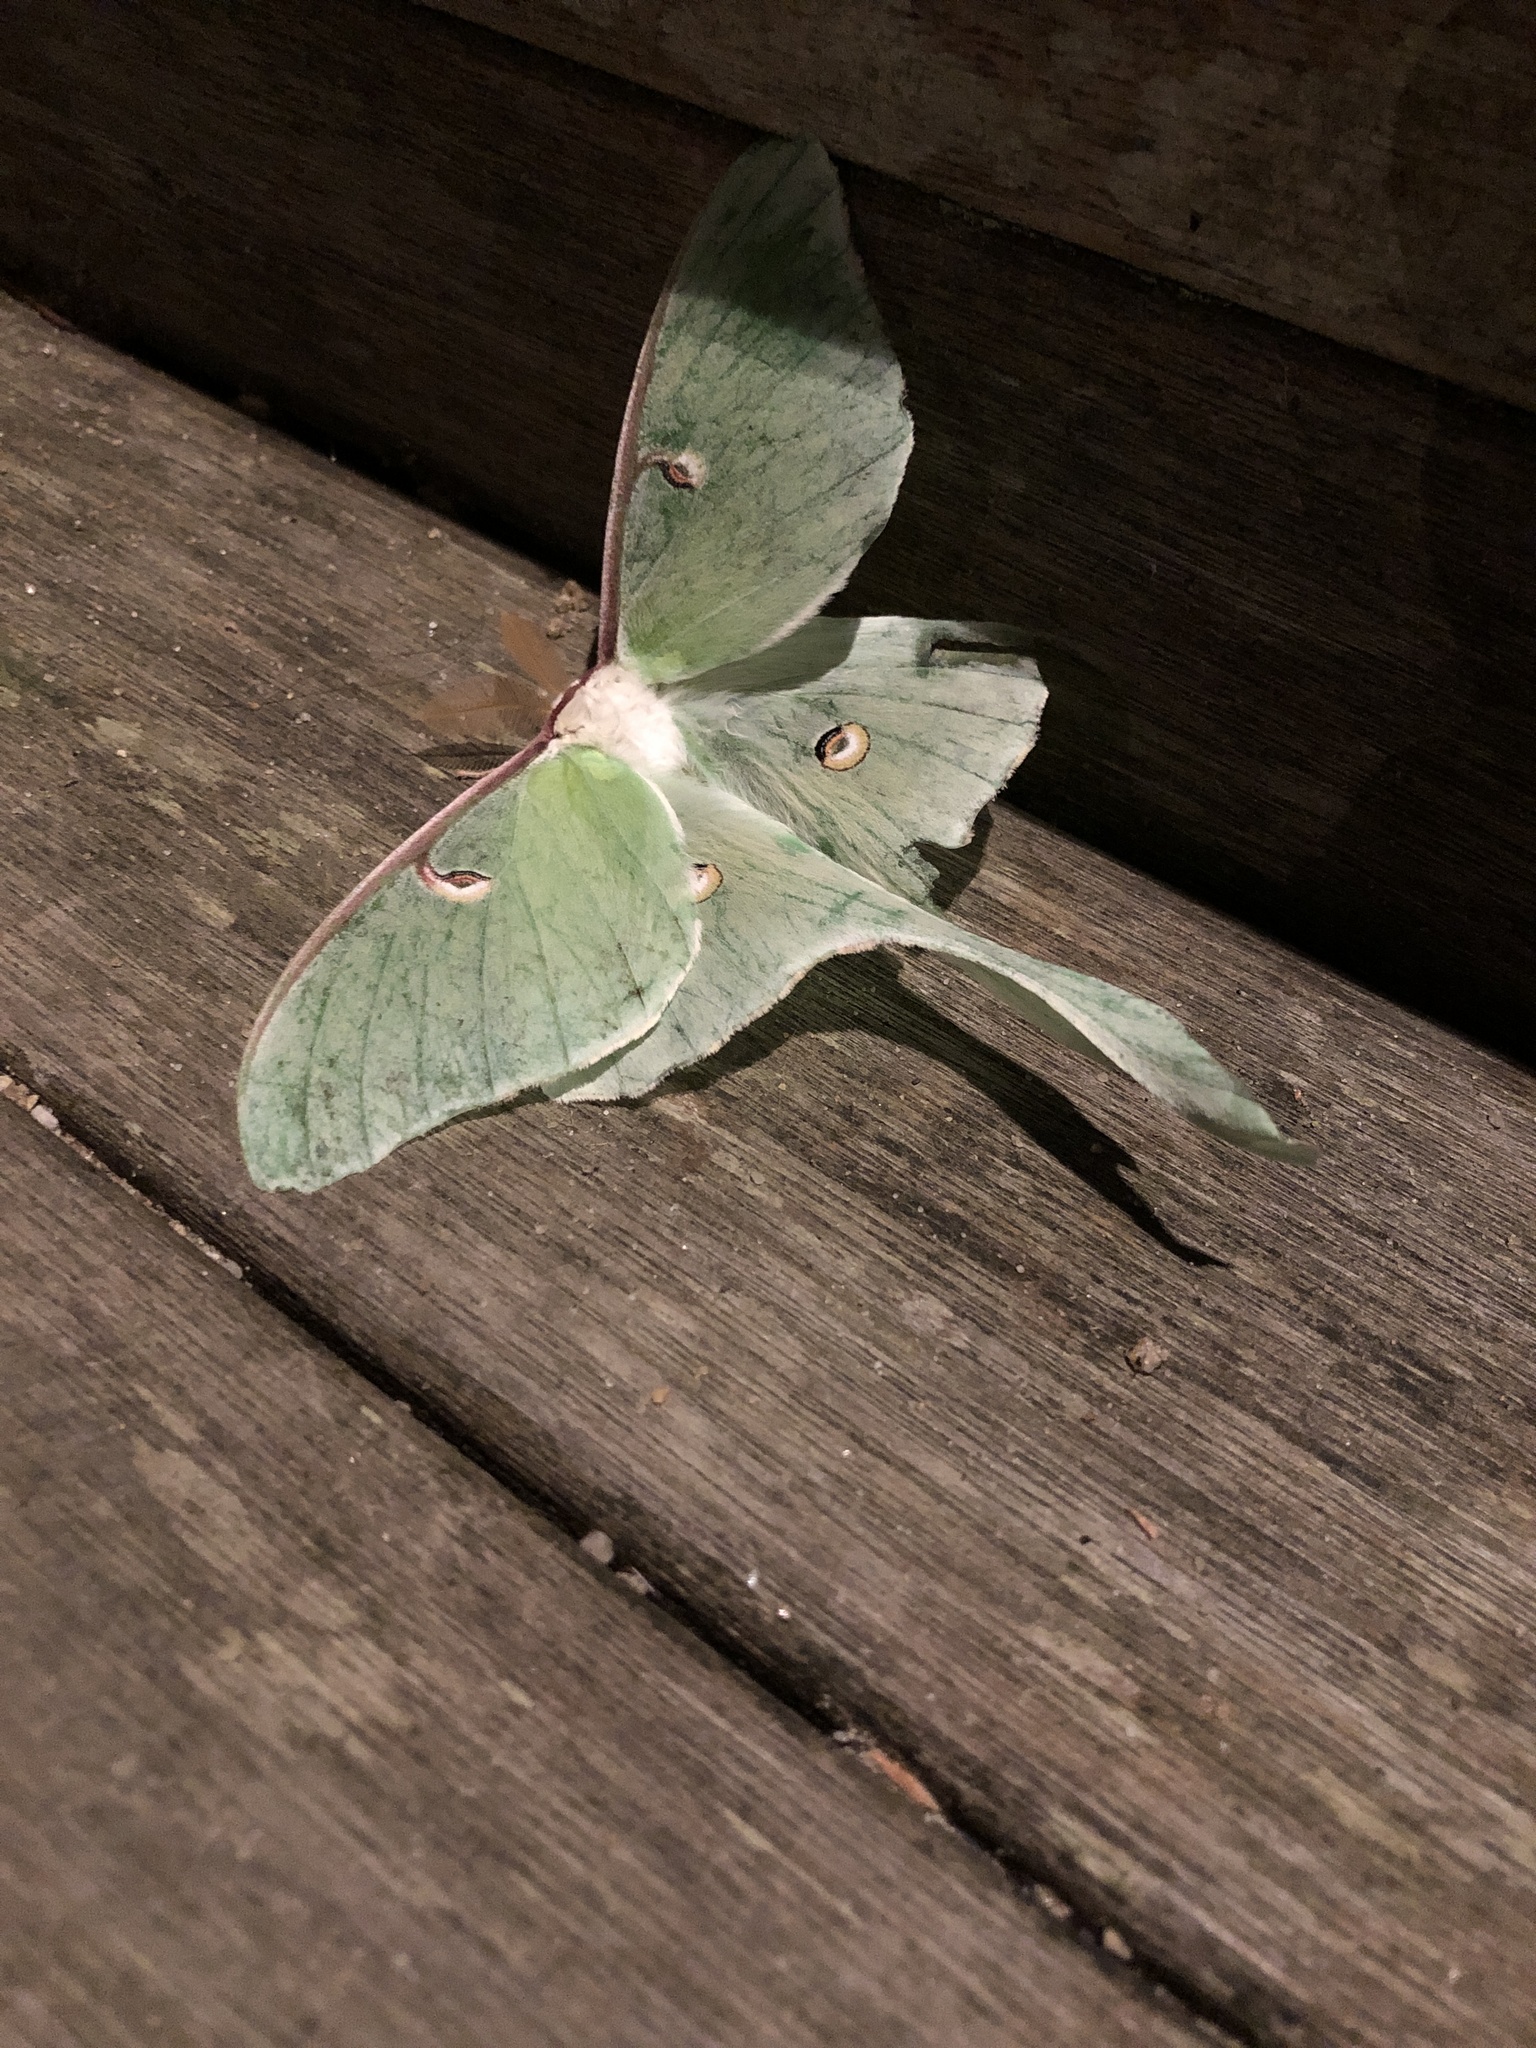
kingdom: Animalia
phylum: Arthropoda
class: Insecta
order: Lepidoptera
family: Saturniidae
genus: Actias
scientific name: Actias luna
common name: Luna moth
